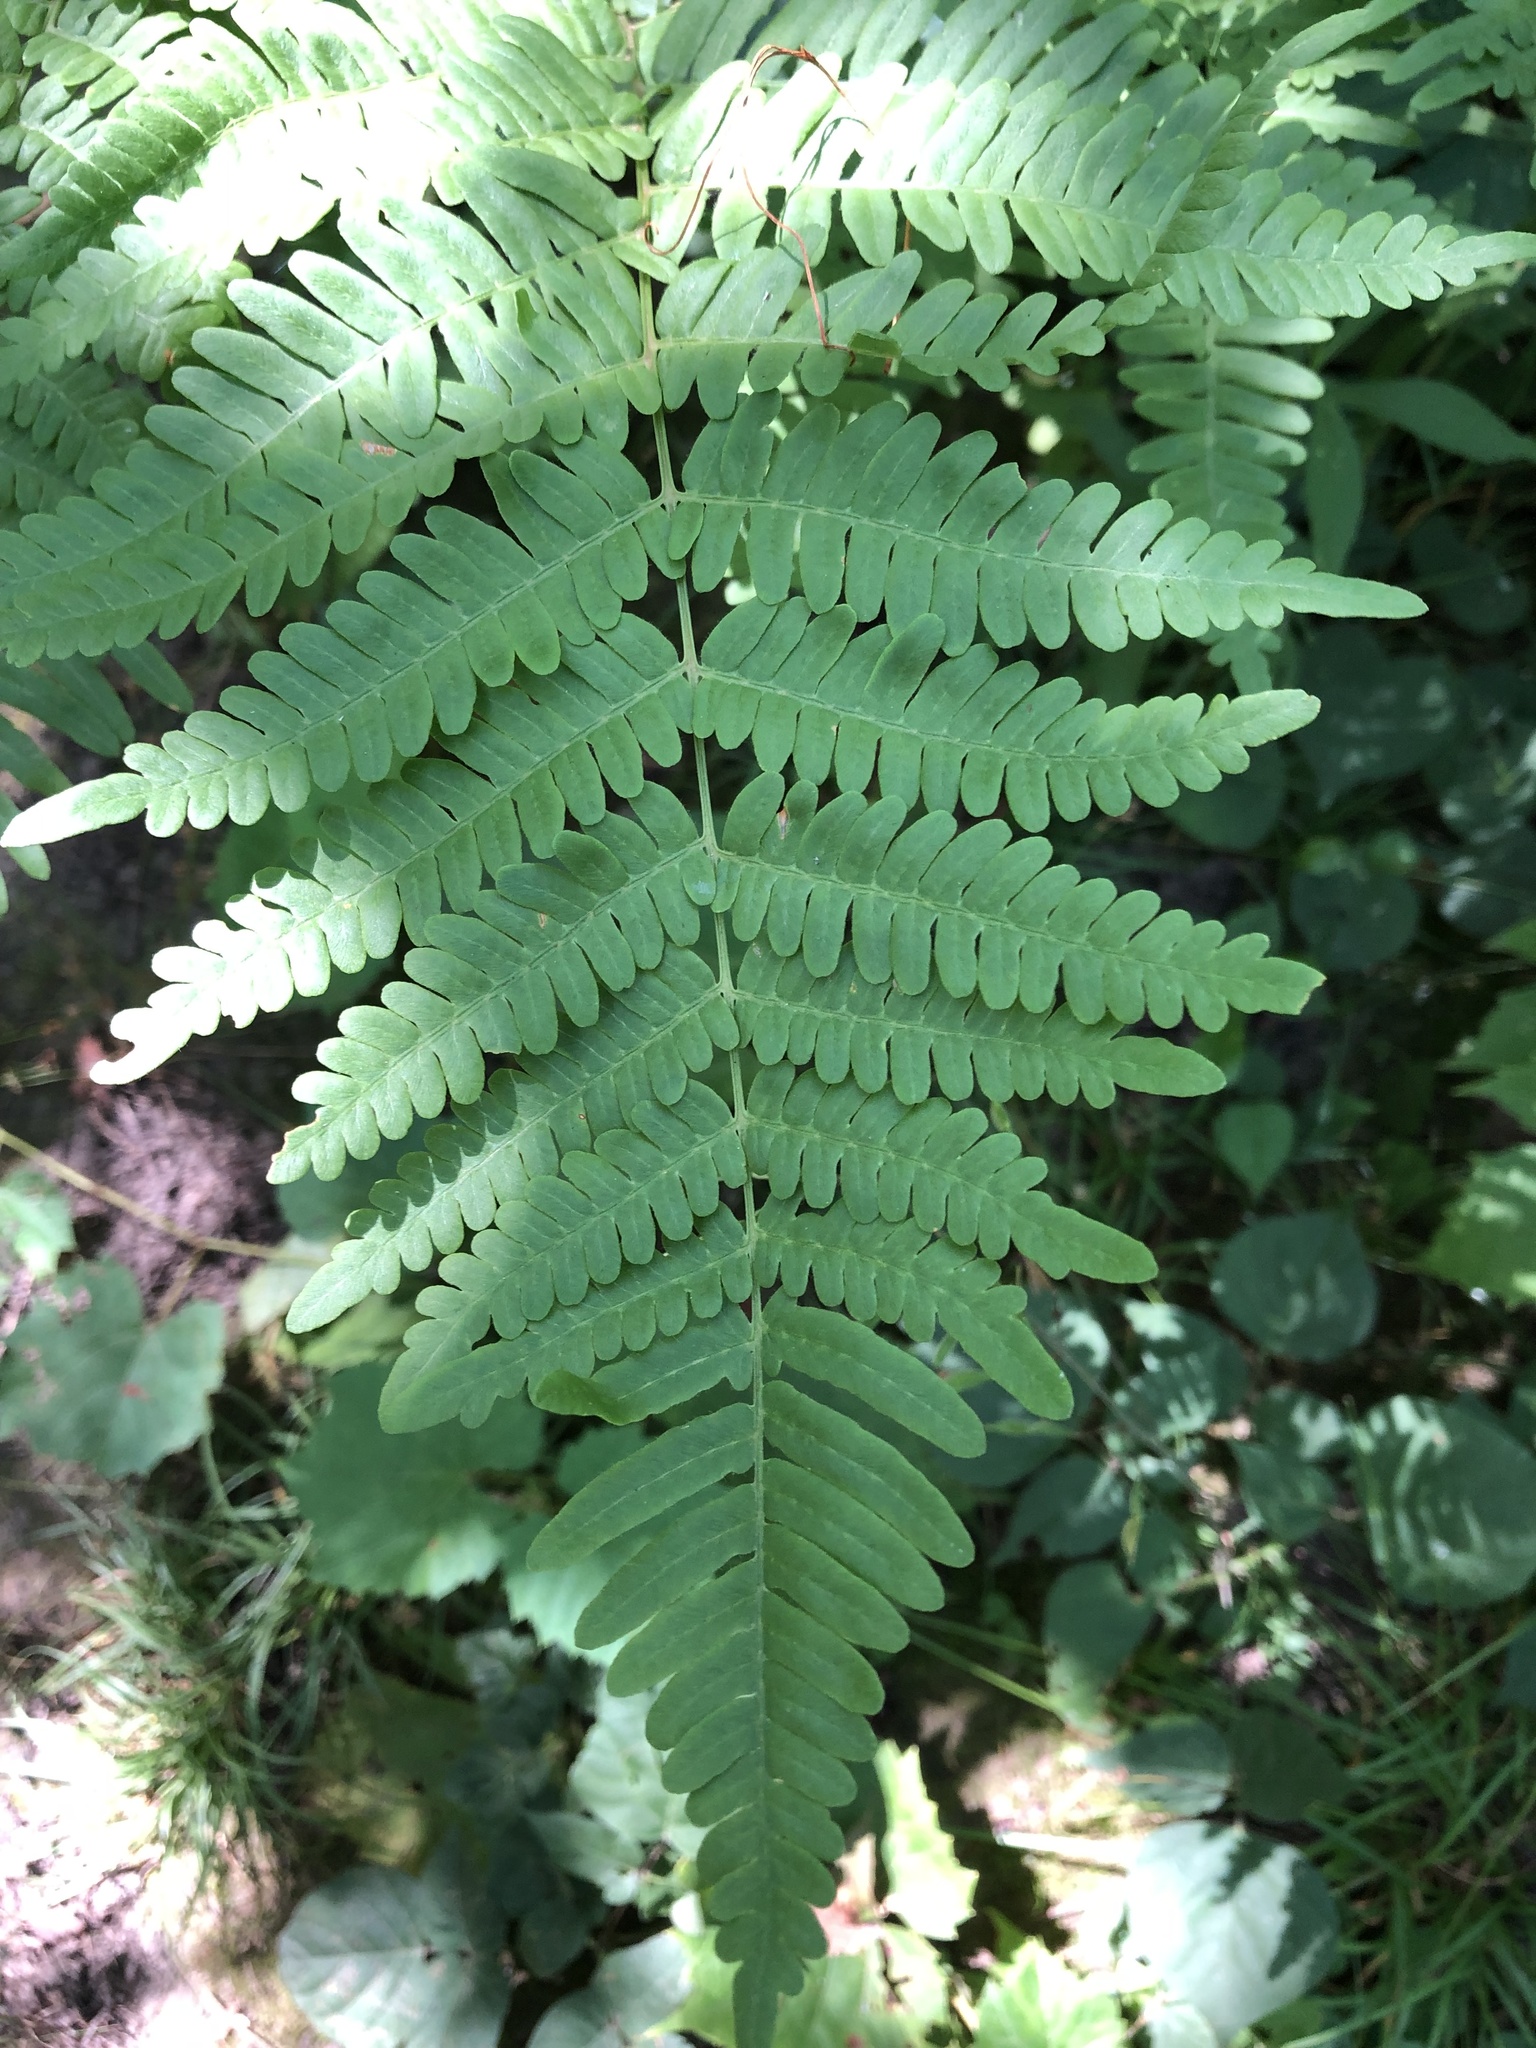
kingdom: Plantae
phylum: Tracheophyta
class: Polypodiopsida
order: Polypodiales
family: Dennstaedtiaceae
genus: Pteridium
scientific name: Pteridium aquilinum
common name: Bracken
